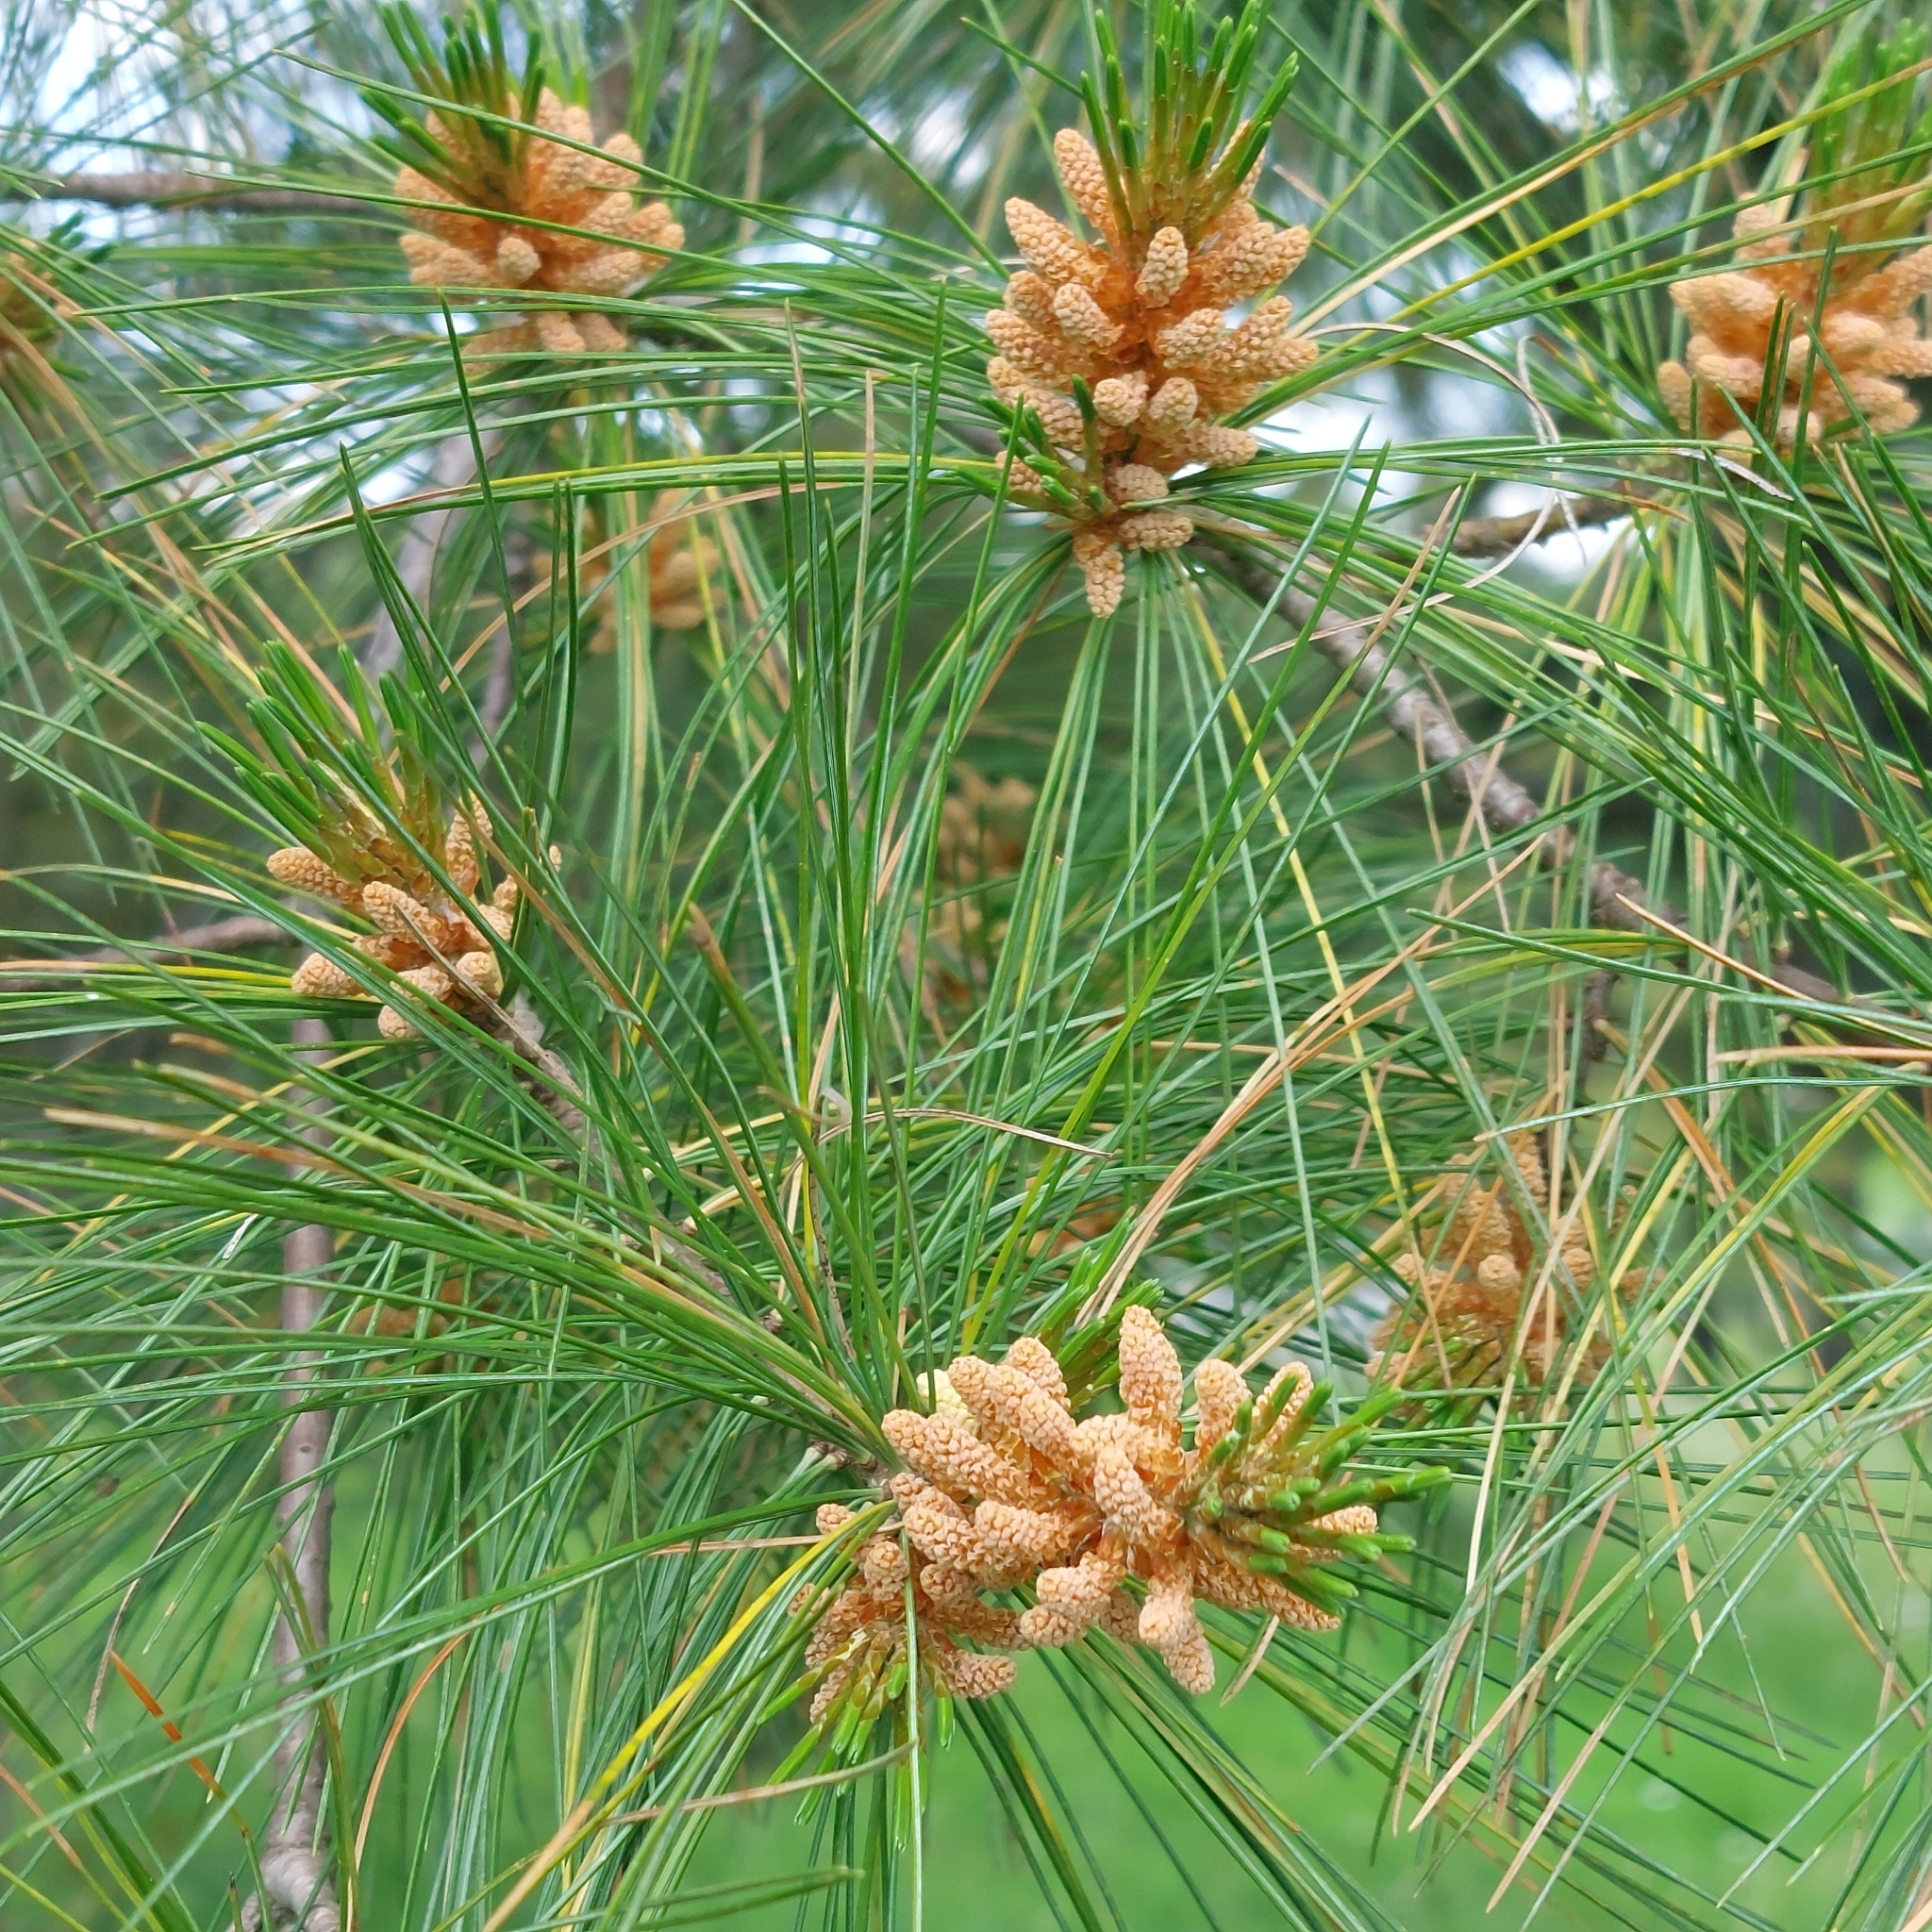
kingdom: Plantae
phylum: Tracheophyta
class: Pinopsida
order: Pinales
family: Pinaceae
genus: Pinus
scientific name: Pinus strobus
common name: Weymouth pine
